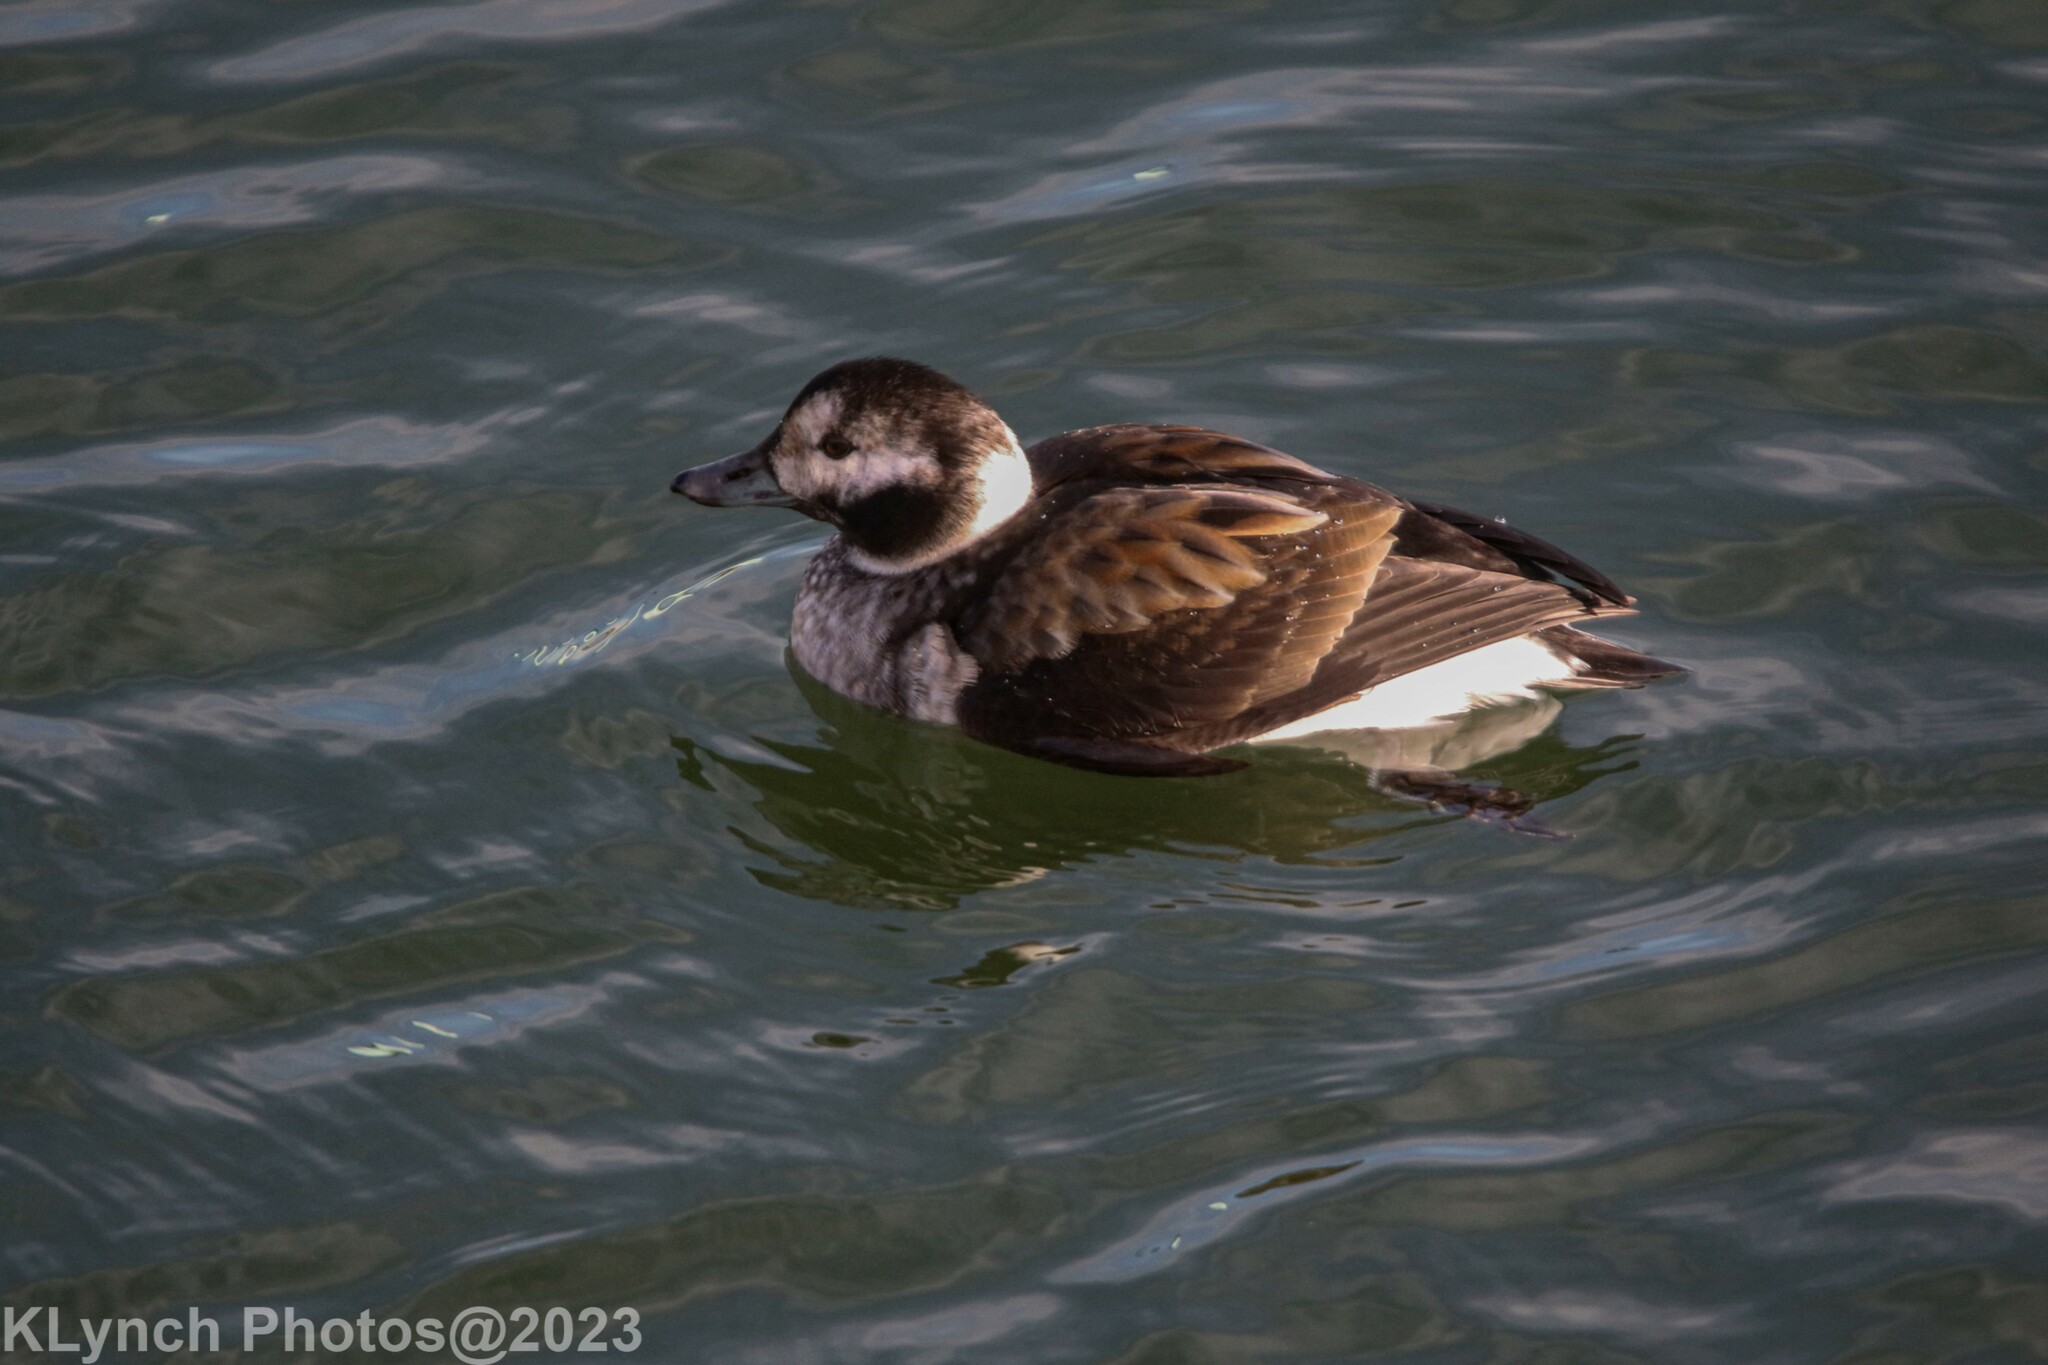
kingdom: Animalia
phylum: Chordata
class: Aves
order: Anseriformes
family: Anatidae
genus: Clangula
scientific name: Clangula hyemalis
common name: Long-tailed duck
